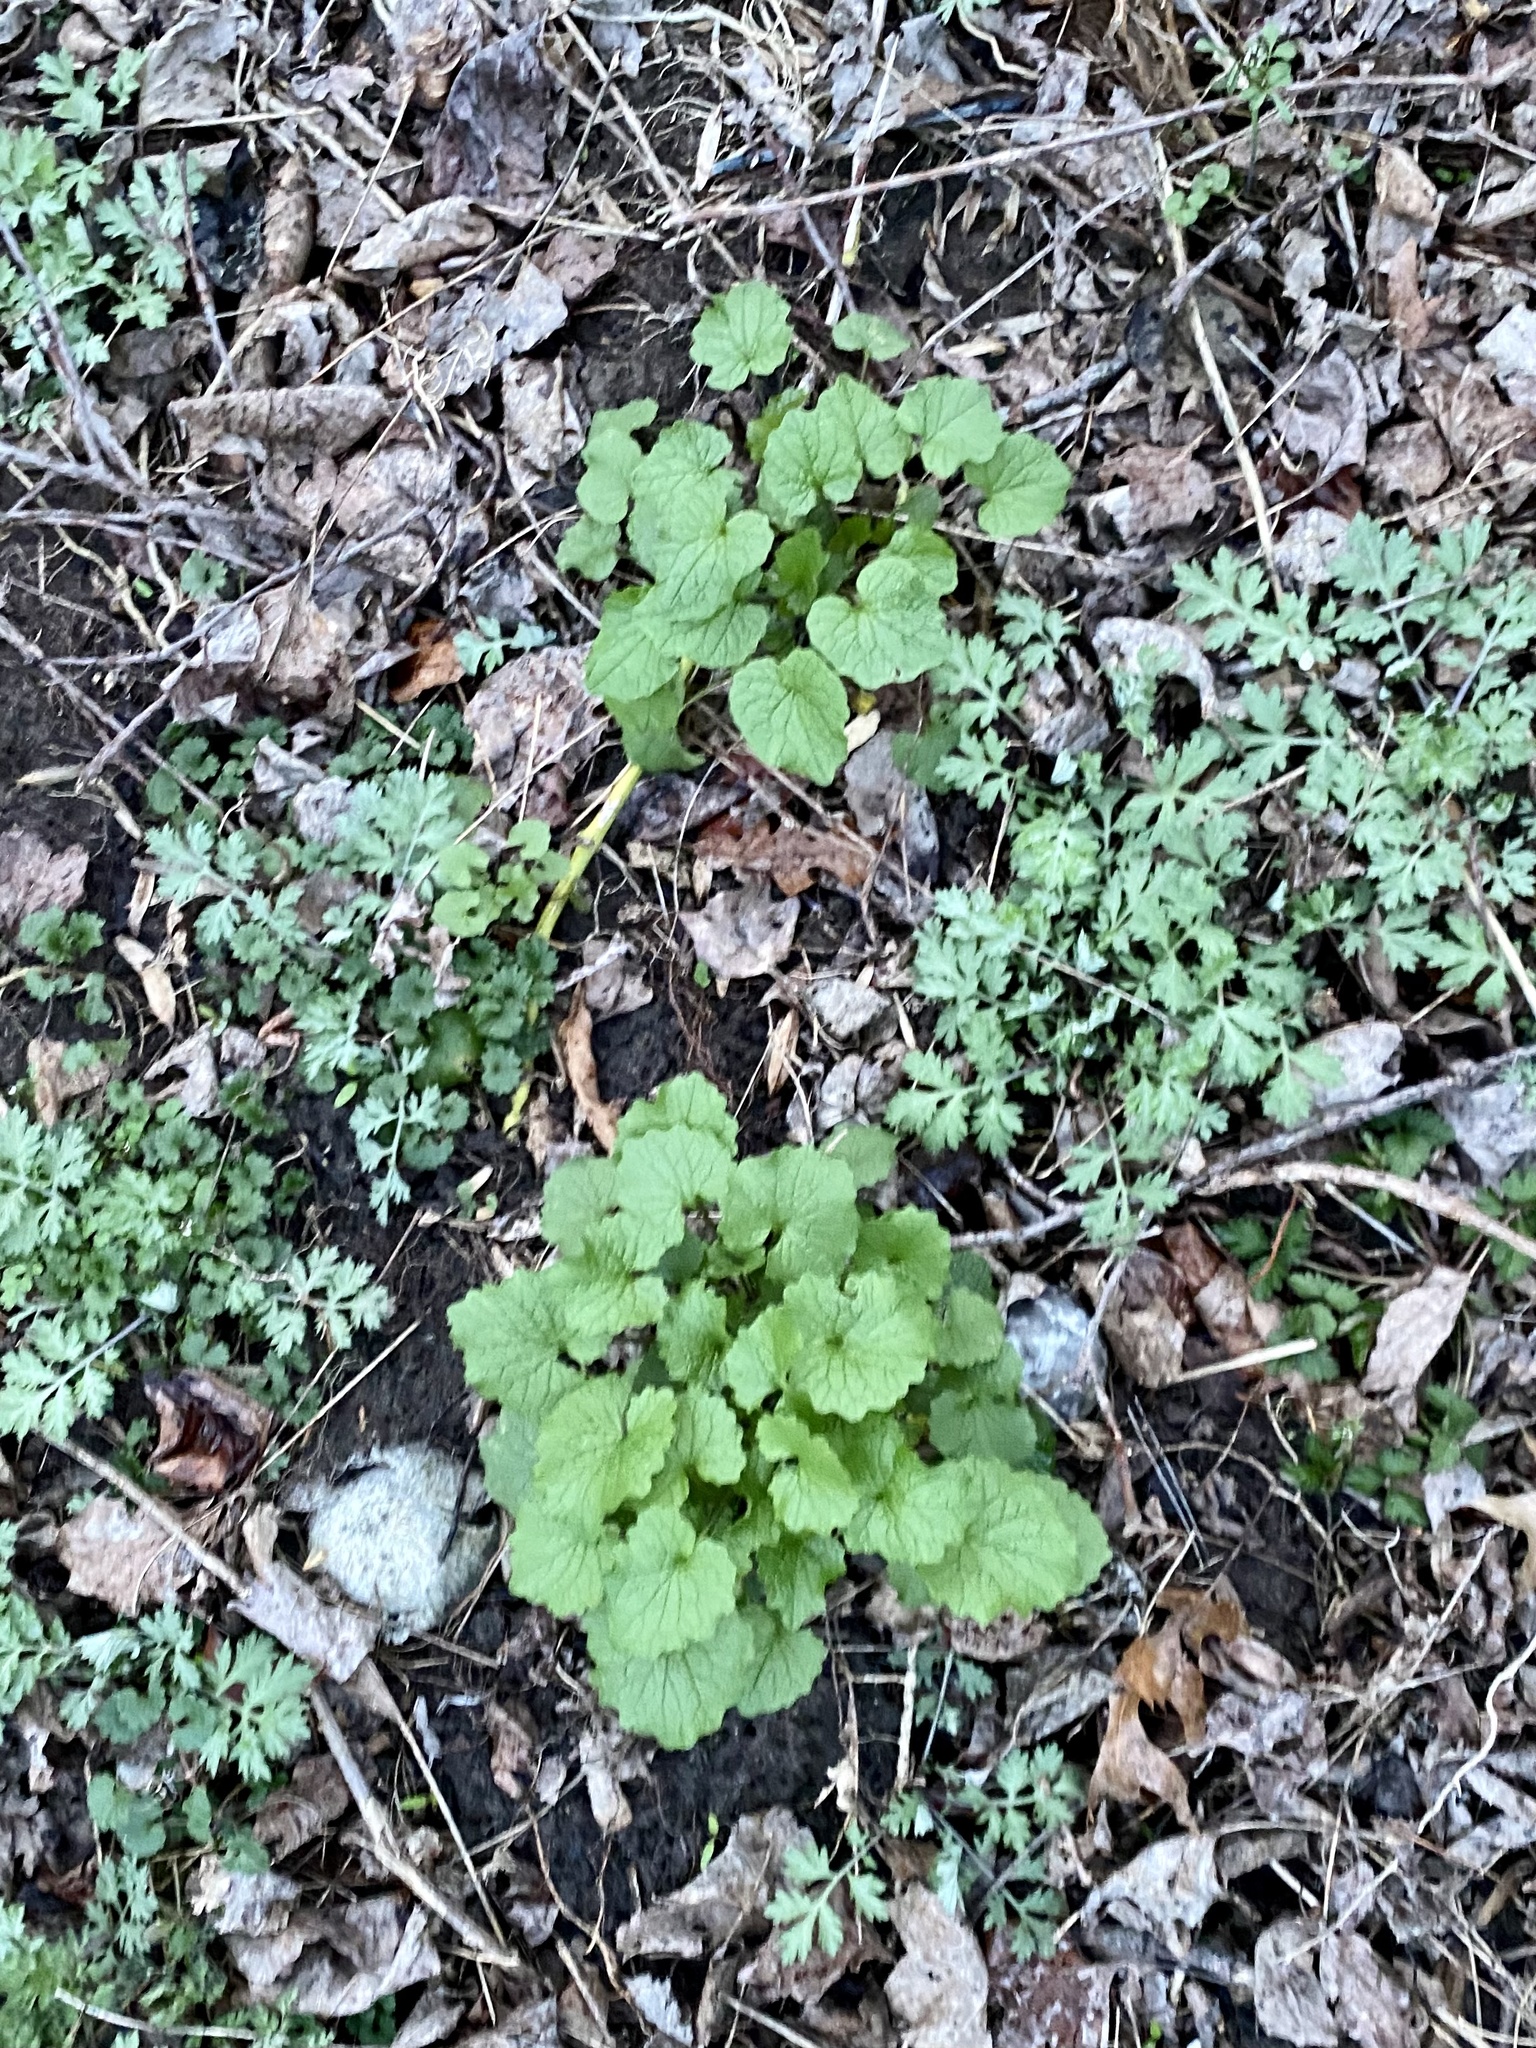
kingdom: Plantae
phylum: Tracheophyta
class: Magnoliopsida
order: Brassicales
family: Brassicaceae
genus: Alliaria
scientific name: Alliaria petiolata
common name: Garlic mustard
